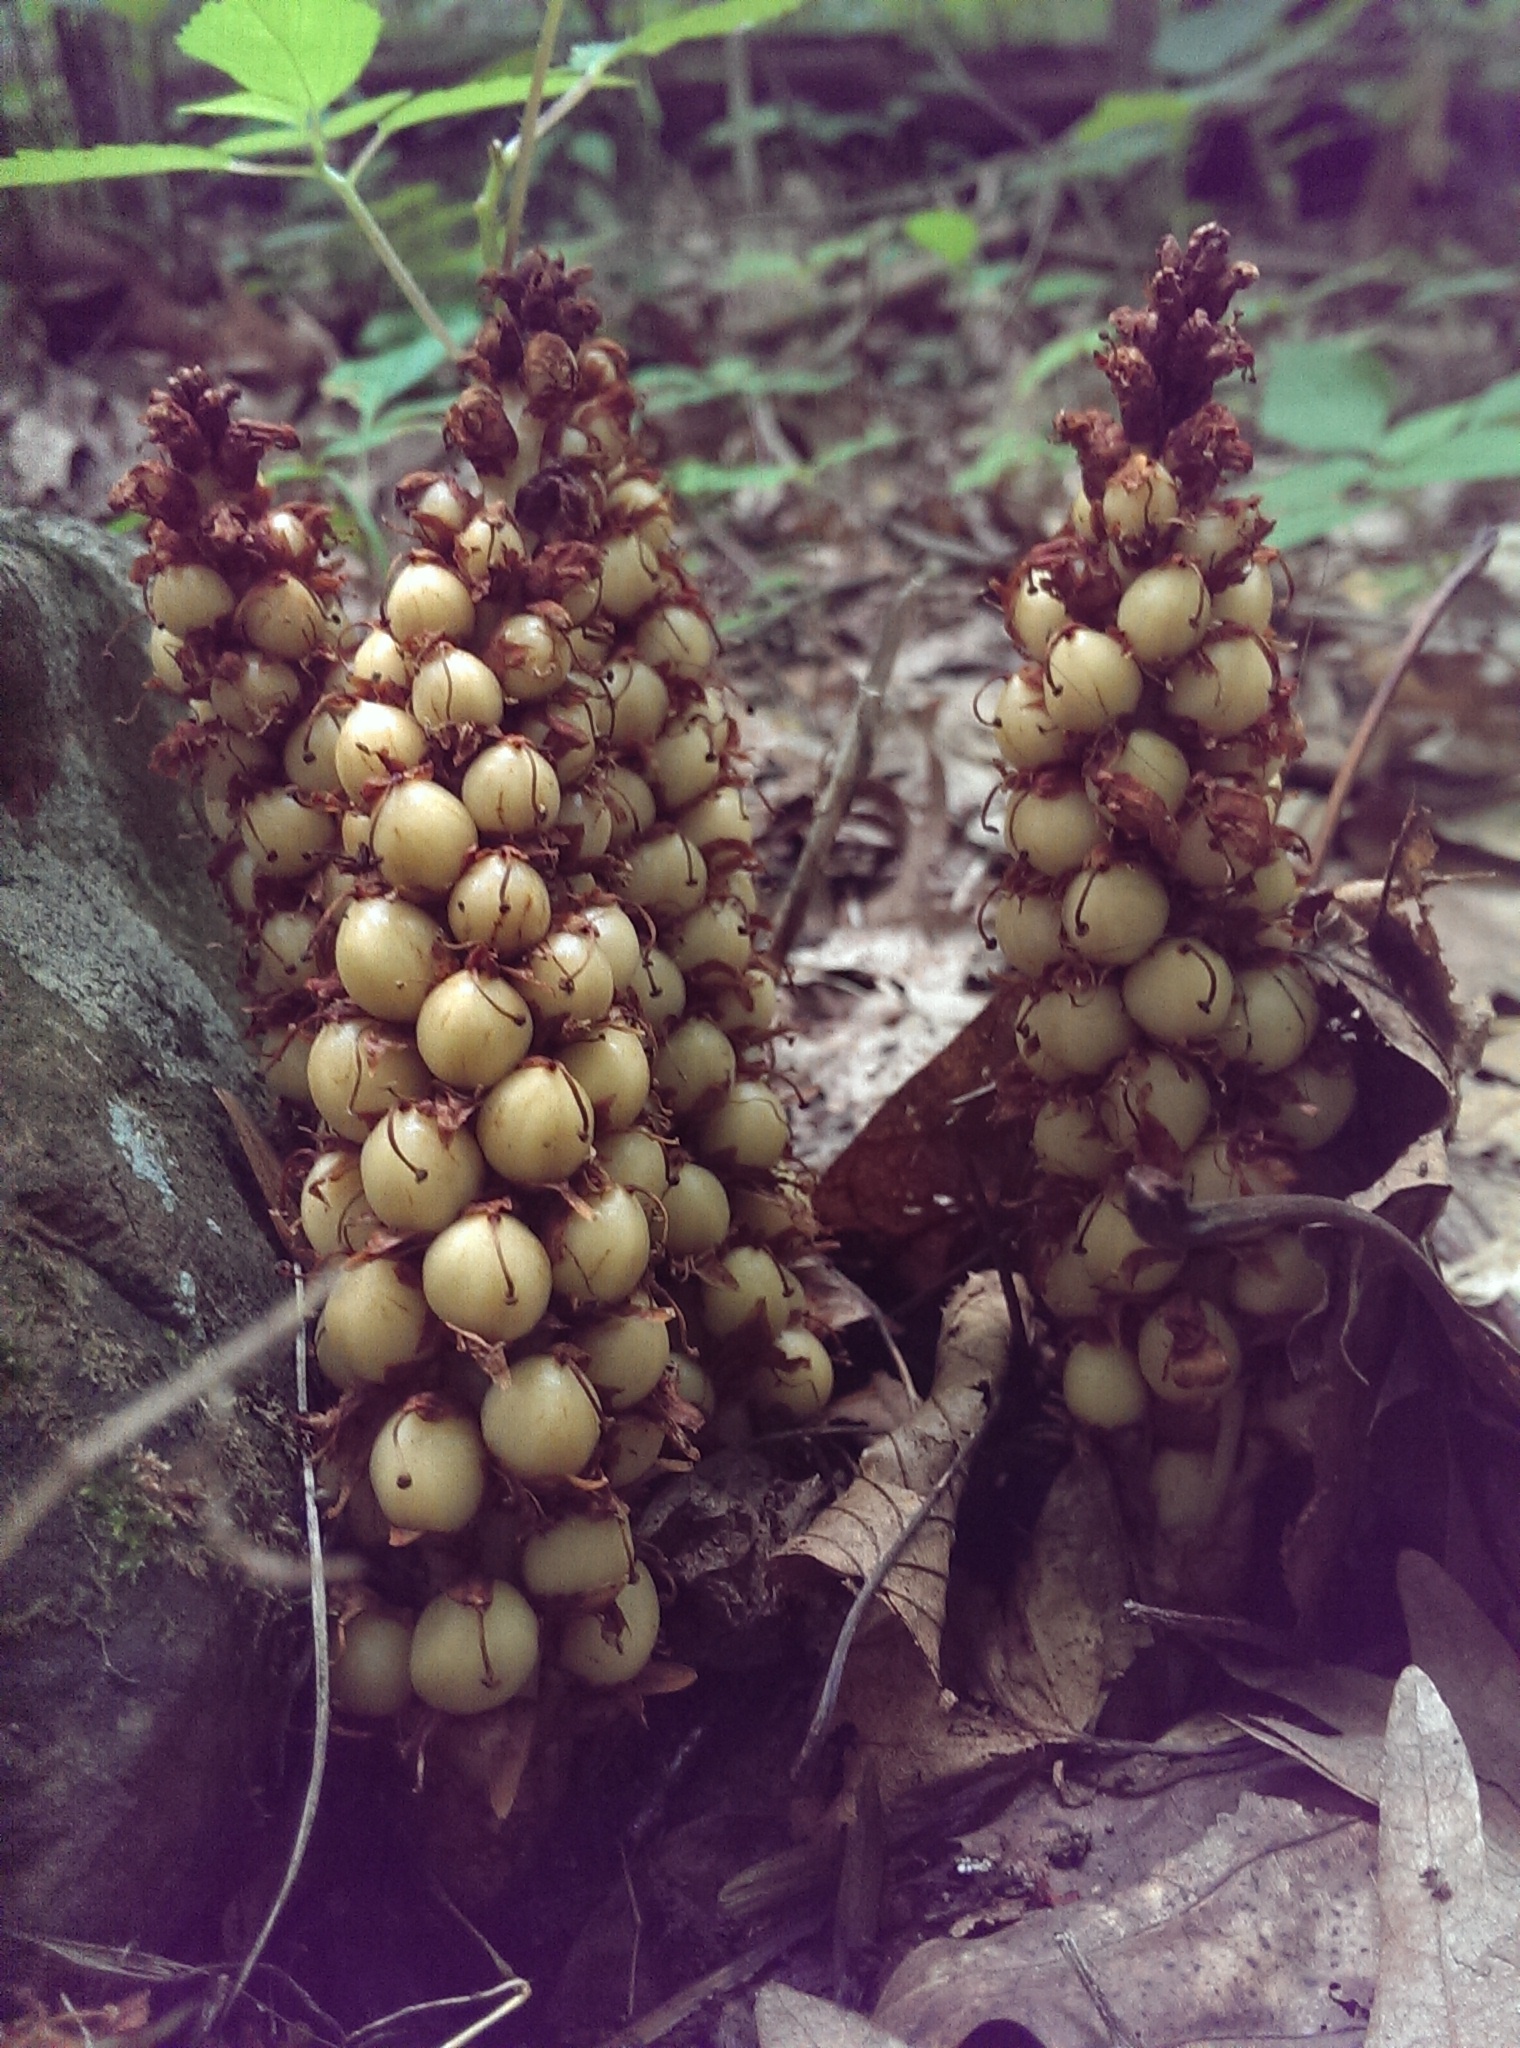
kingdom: Plantae
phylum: Tracheophyta
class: Magnoliopsida
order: Lamiales
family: Orobanchaceae
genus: Conopholis
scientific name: Conopholis americana
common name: American cancer-root
